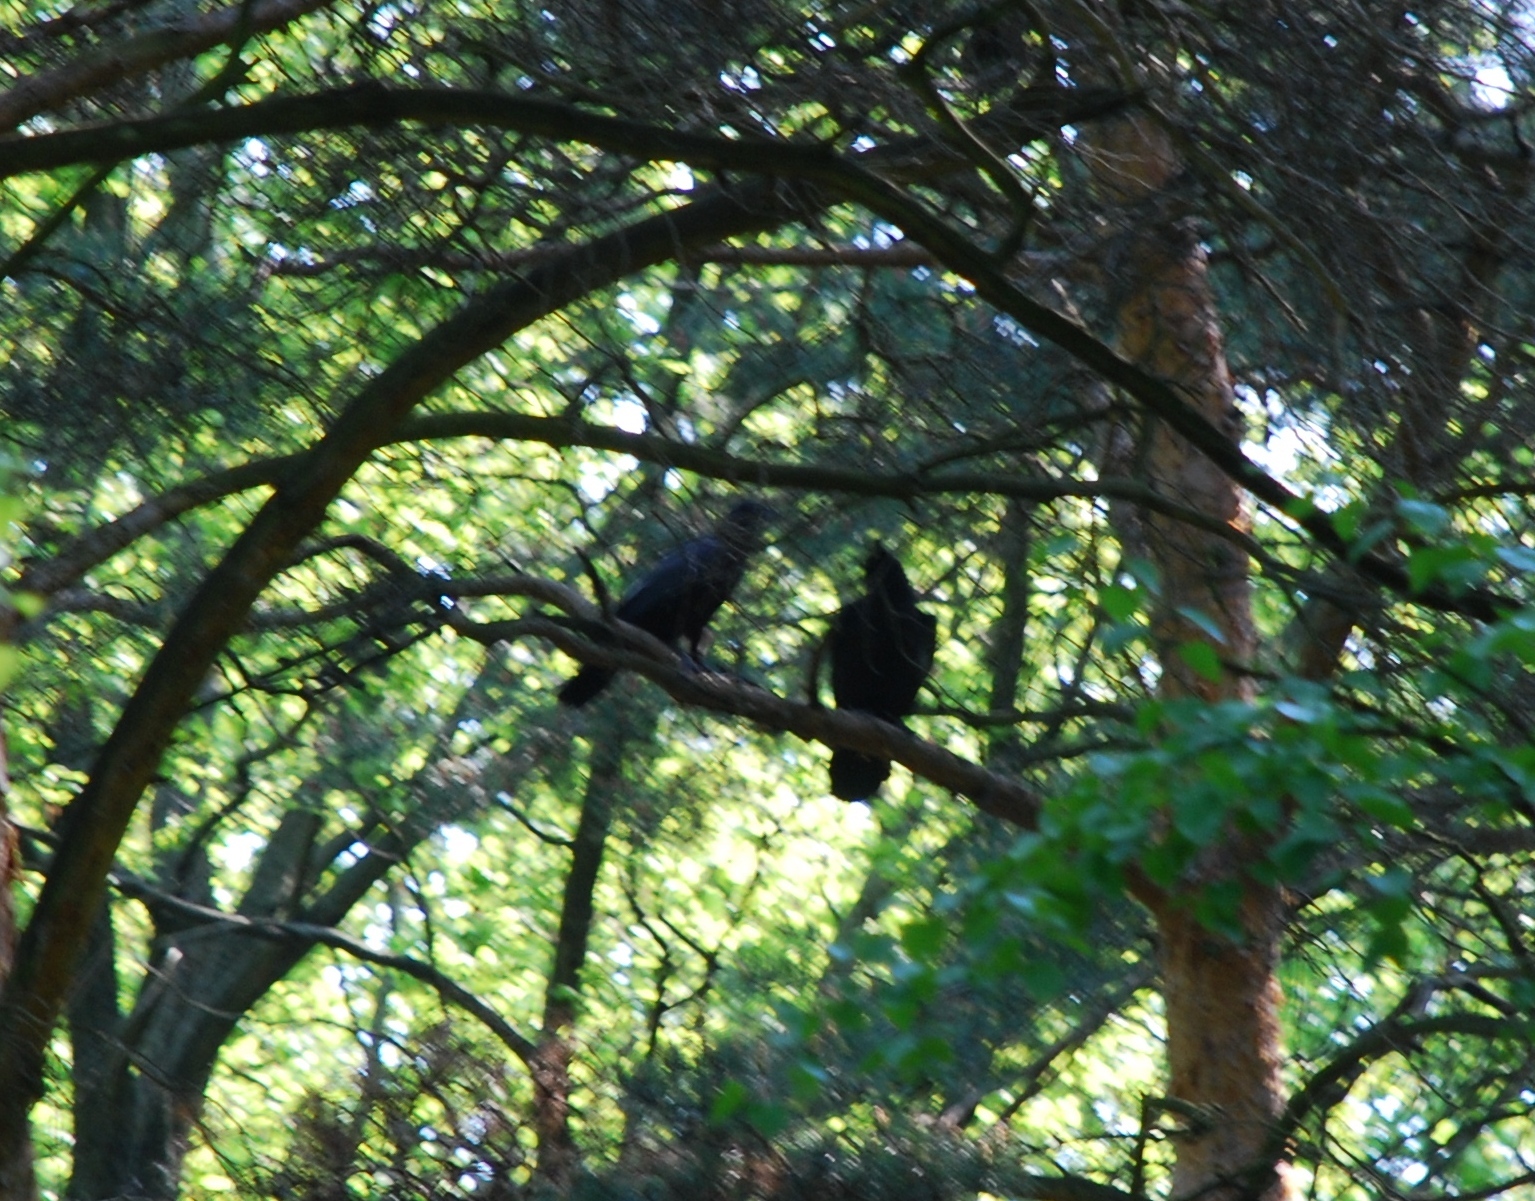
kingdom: Animalia
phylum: Chordata
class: Aves
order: Passeriformes
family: Corvidae
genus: Corvus
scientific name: Corvus corax
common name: Common raven
